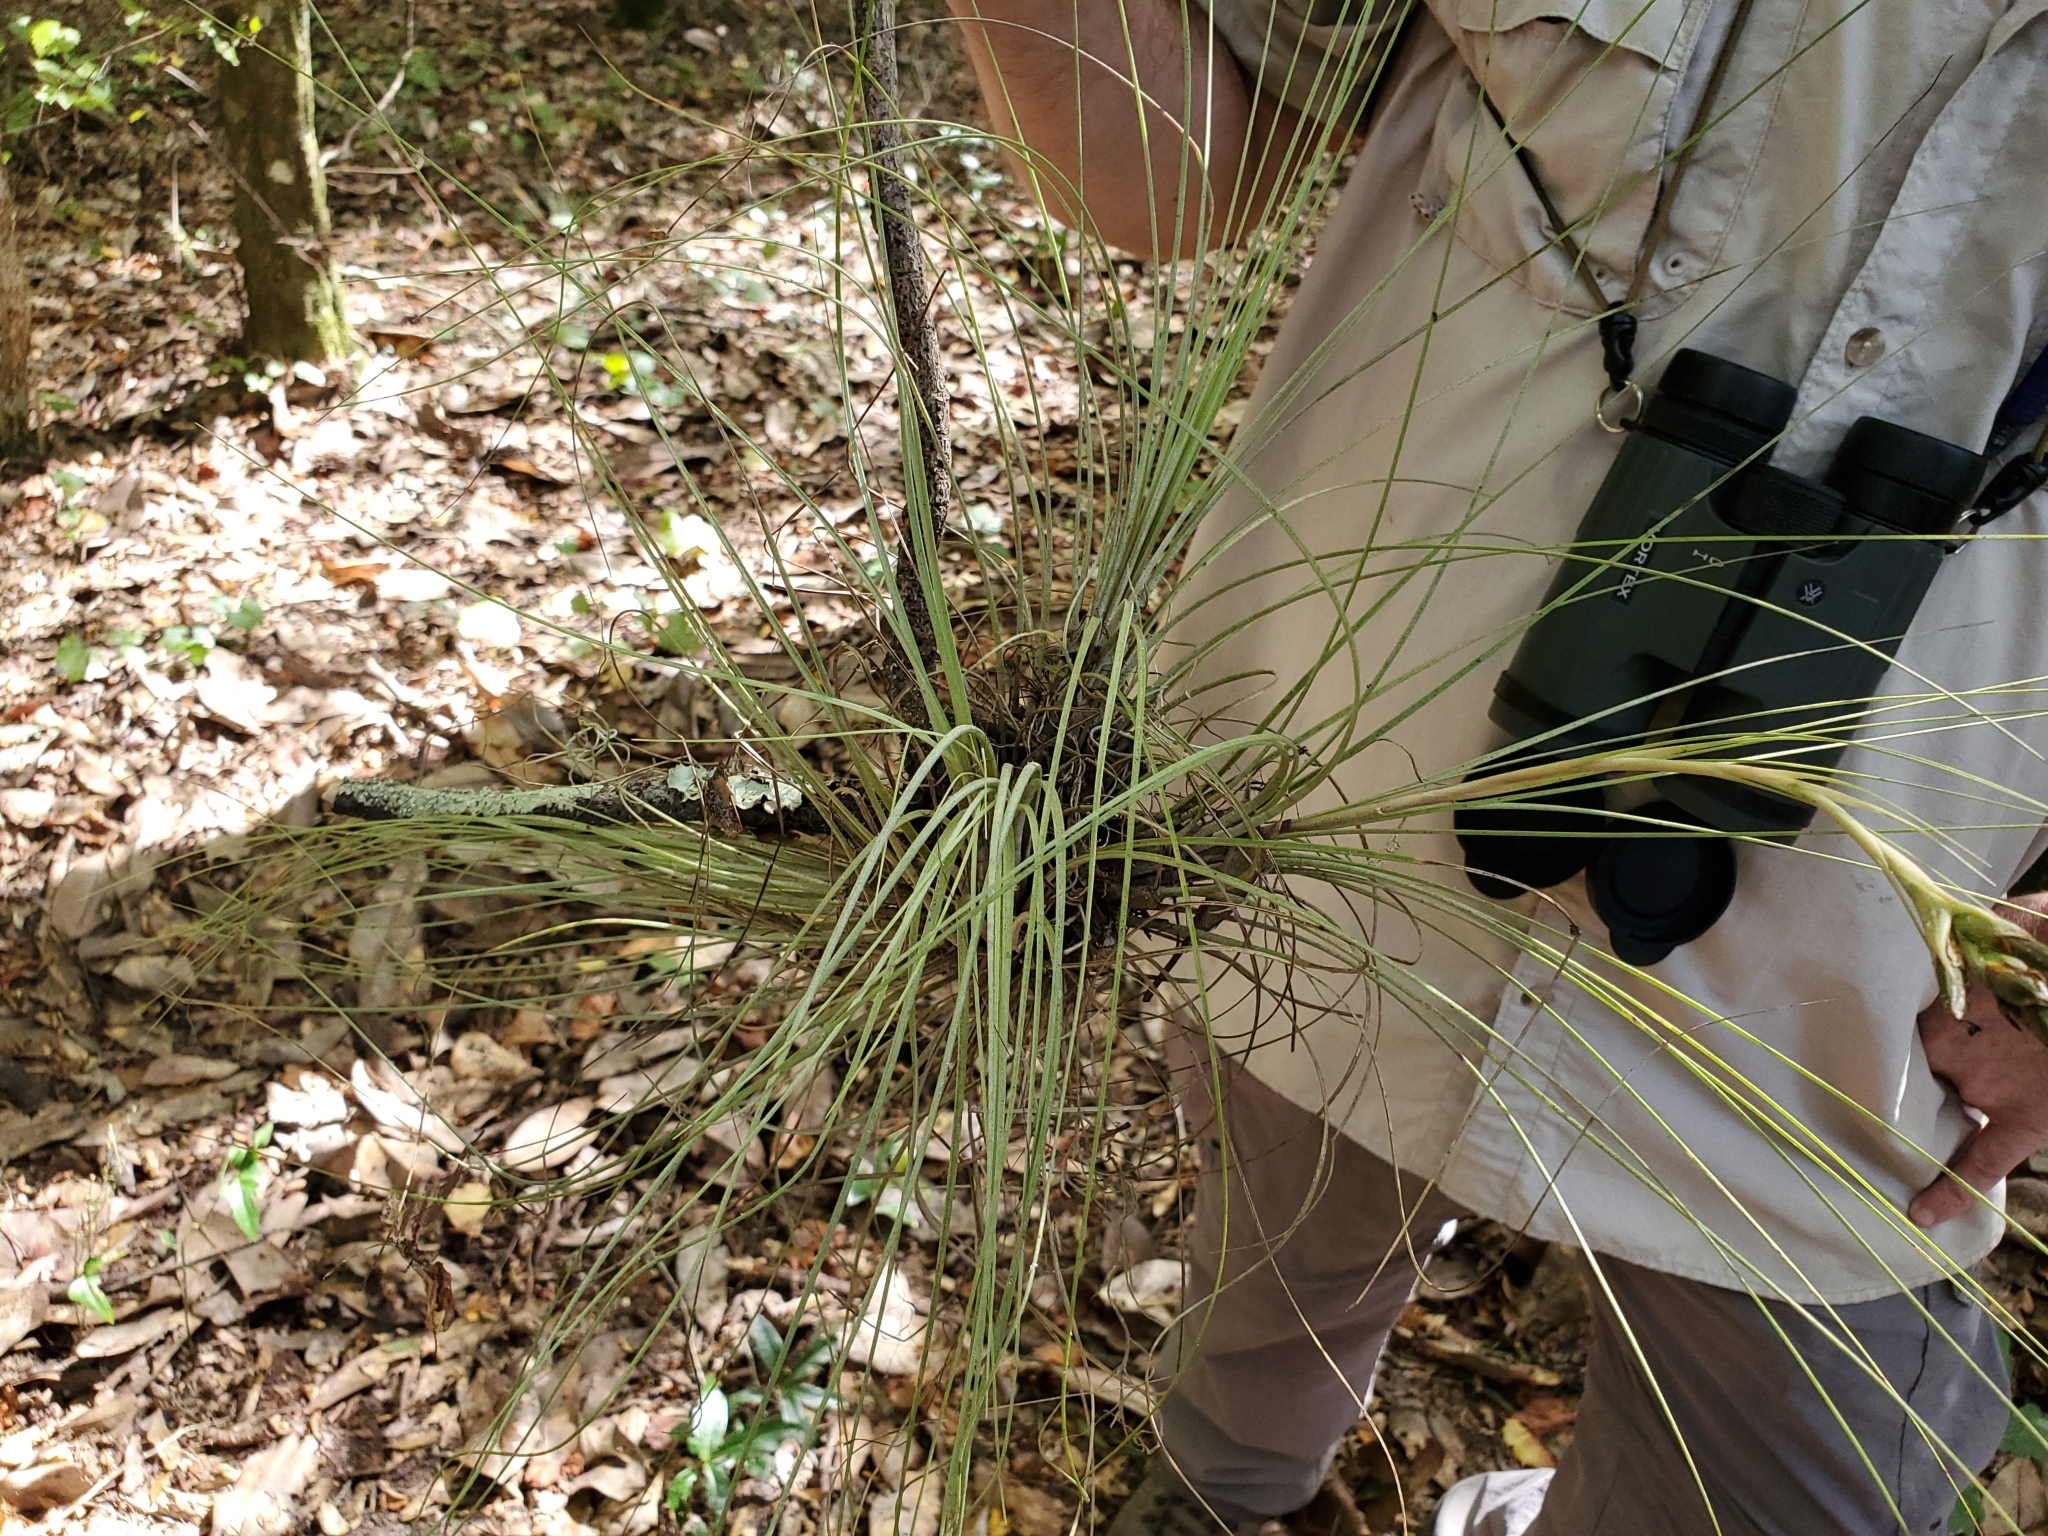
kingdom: Plantae
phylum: Tracheophyta
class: Liliopsida
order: Poales
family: Bromeliaceae
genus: Tillandsia
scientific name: Tillandsia bartramii
